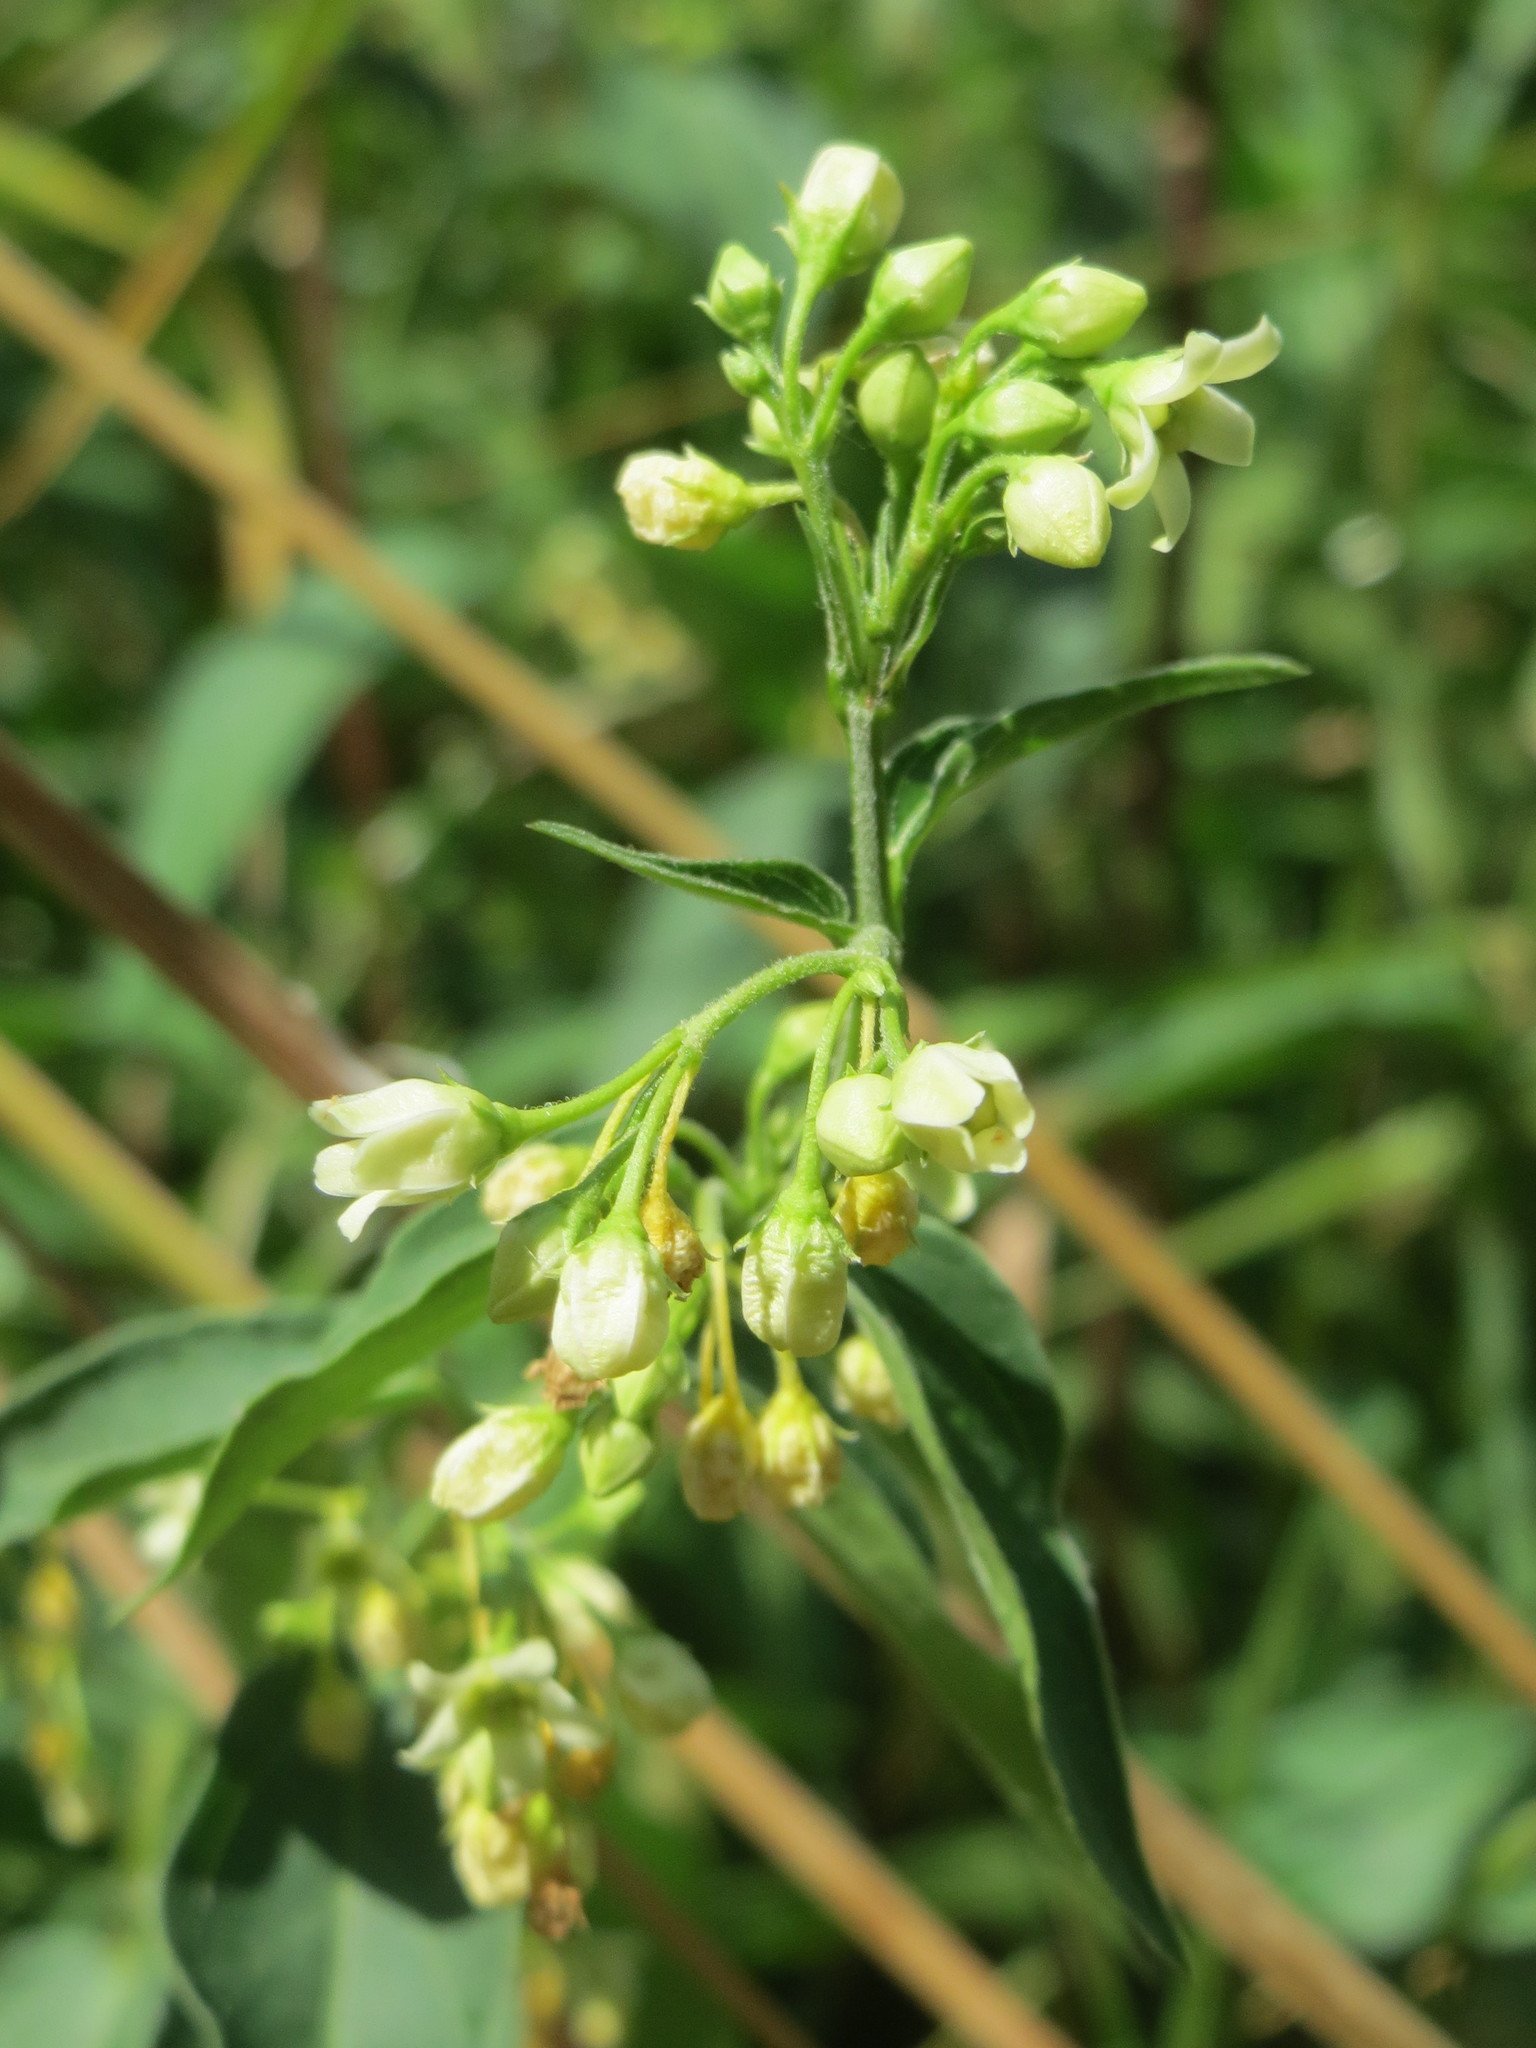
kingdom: Plantae
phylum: Tracheophyta
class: Magnoliopsida
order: Gentianales
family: Apocynaceae
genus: Vincetoxicum
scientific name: Vincetoxicum hirundinaria
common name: White swallowwort
